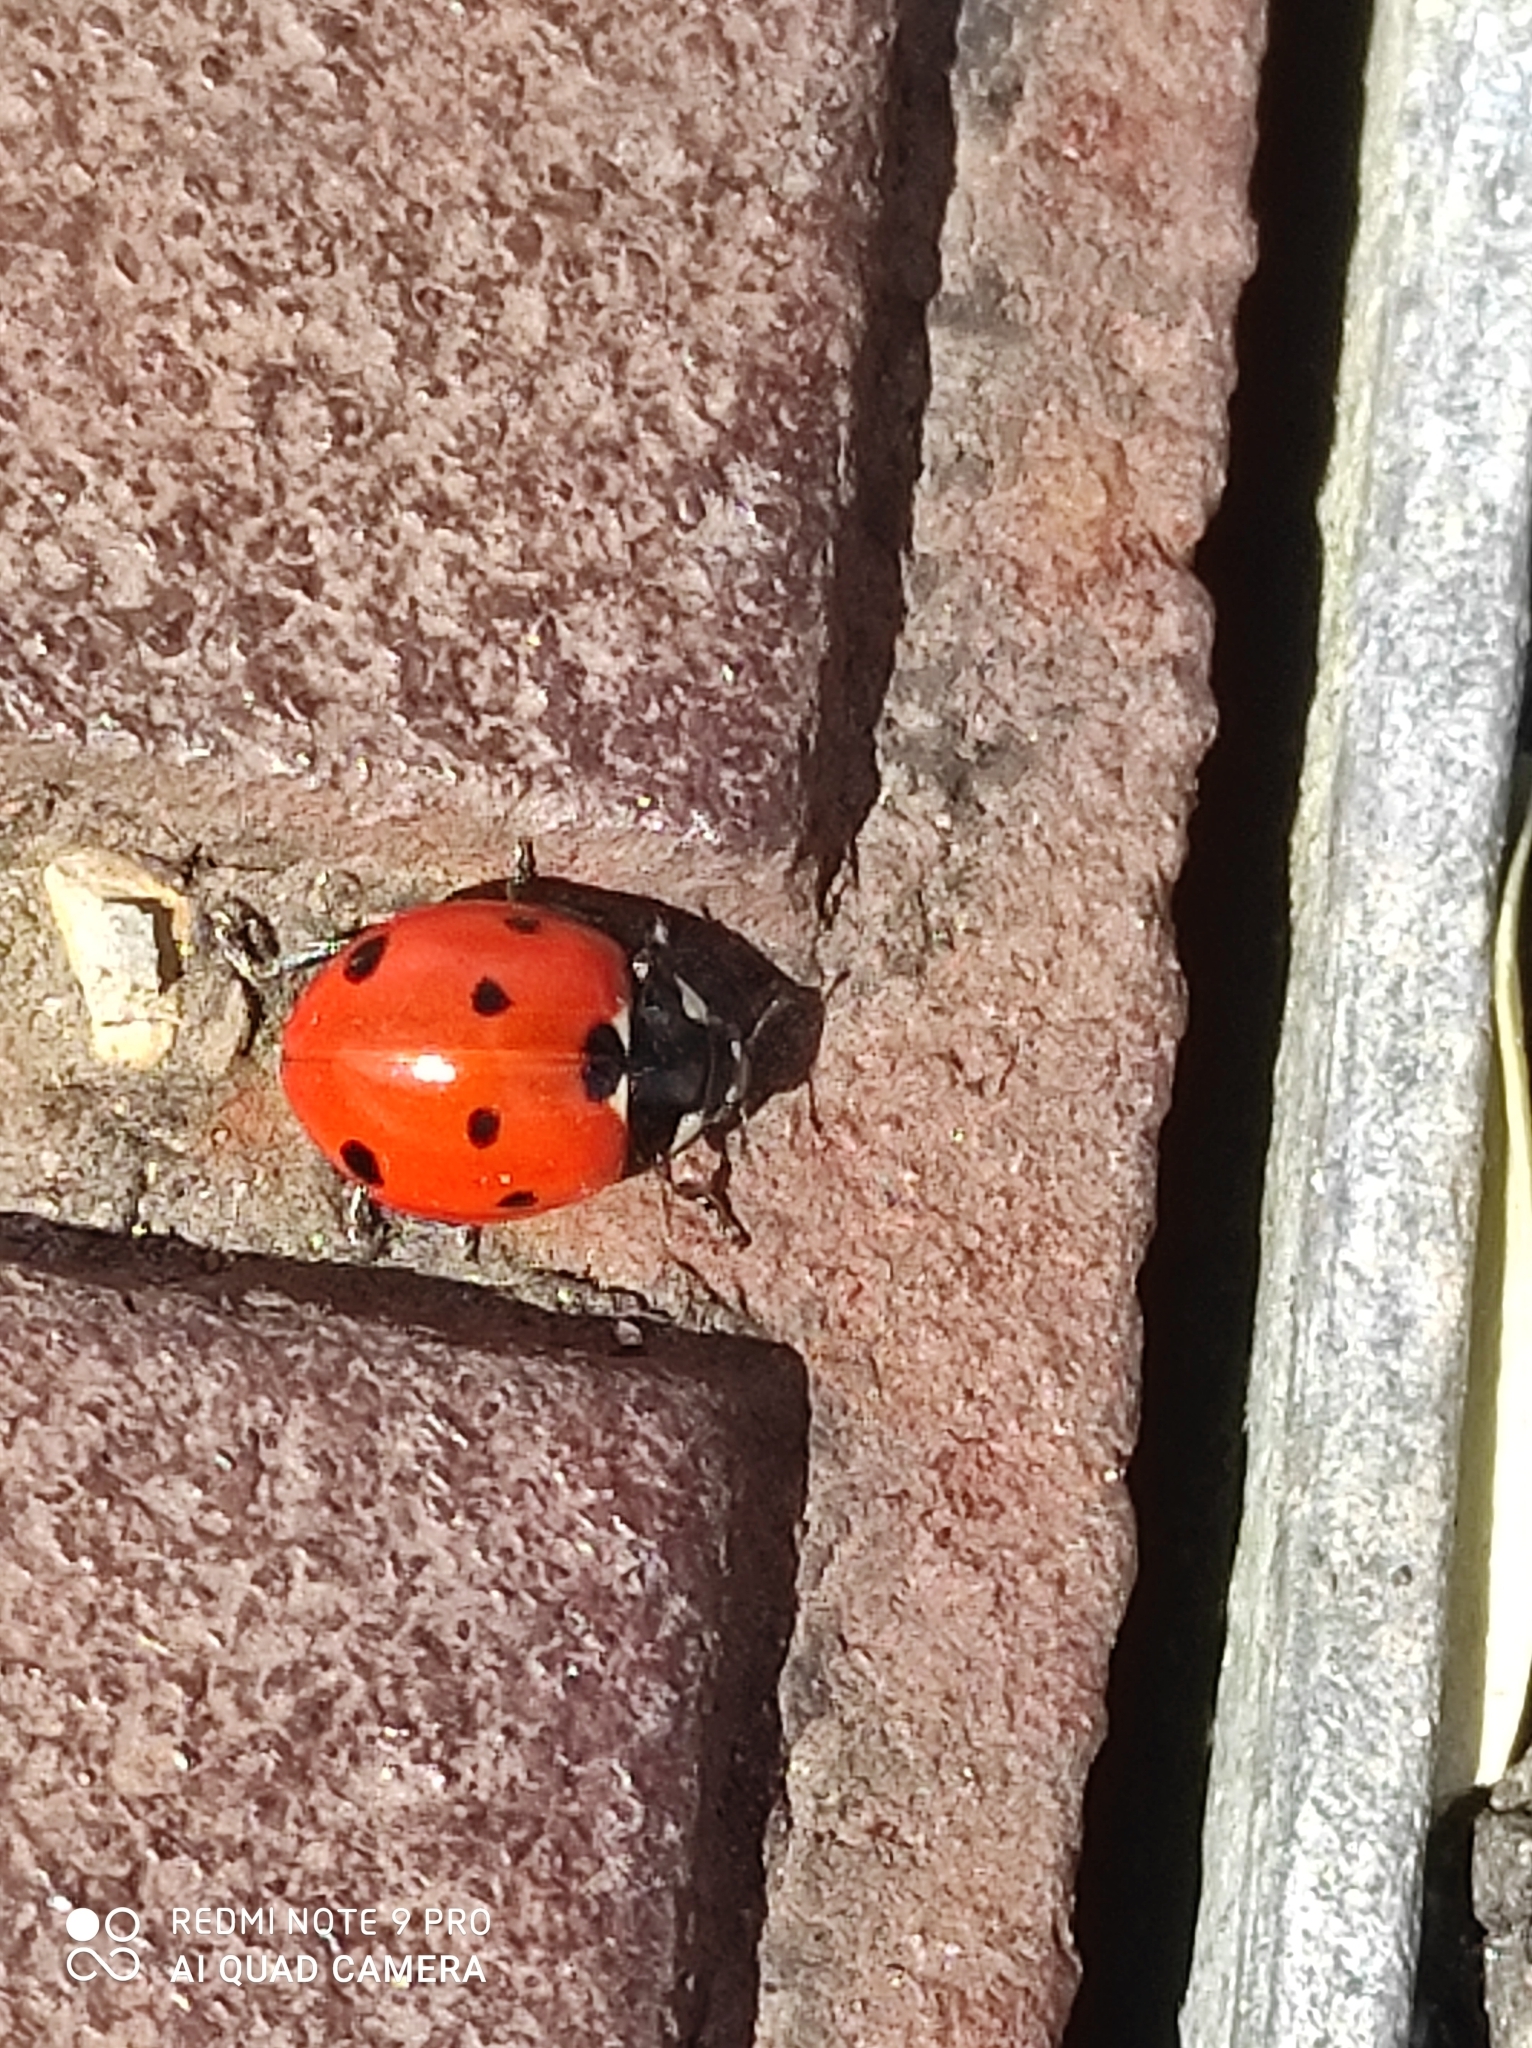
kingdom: Animalia
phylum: Arthropoda
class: Insecta
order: Coleoptera
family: Coccinellidae
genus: Coccinella
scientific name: Coccinella septempunctata
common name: Sevenspotted lady beetle
